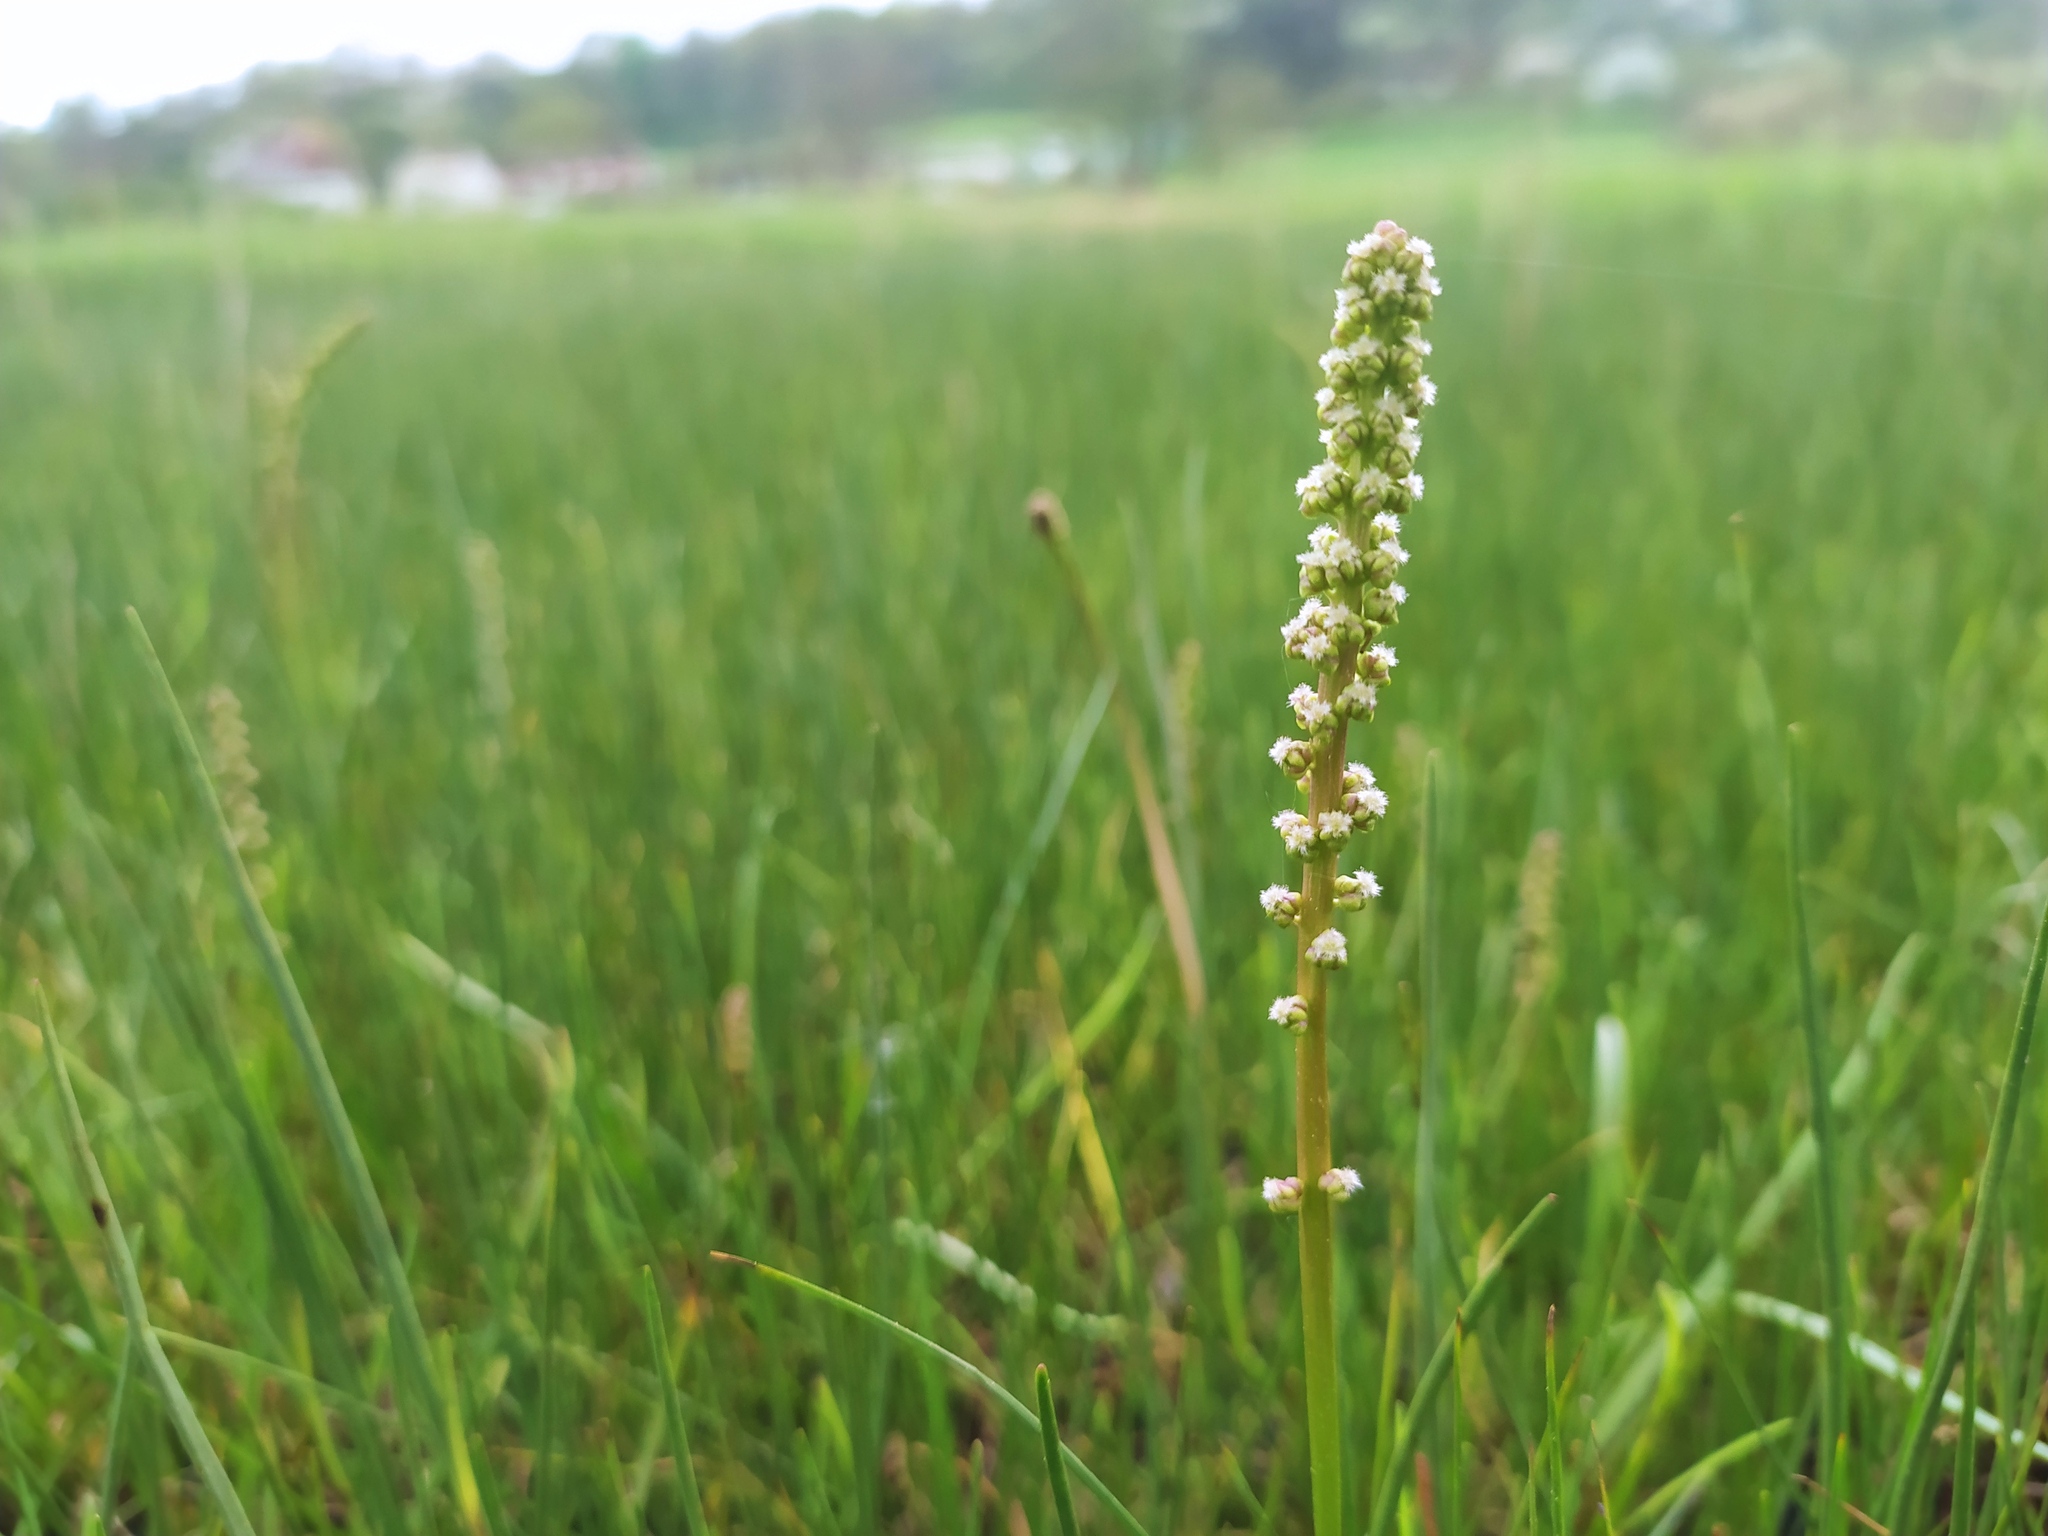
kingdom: Plantae
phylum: Tracheophyta
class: Liliopsida
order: Alismatales
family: Juncaginaceae
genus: Triglochin
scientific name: Triglochin maritima
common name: Sea arrowgrass
